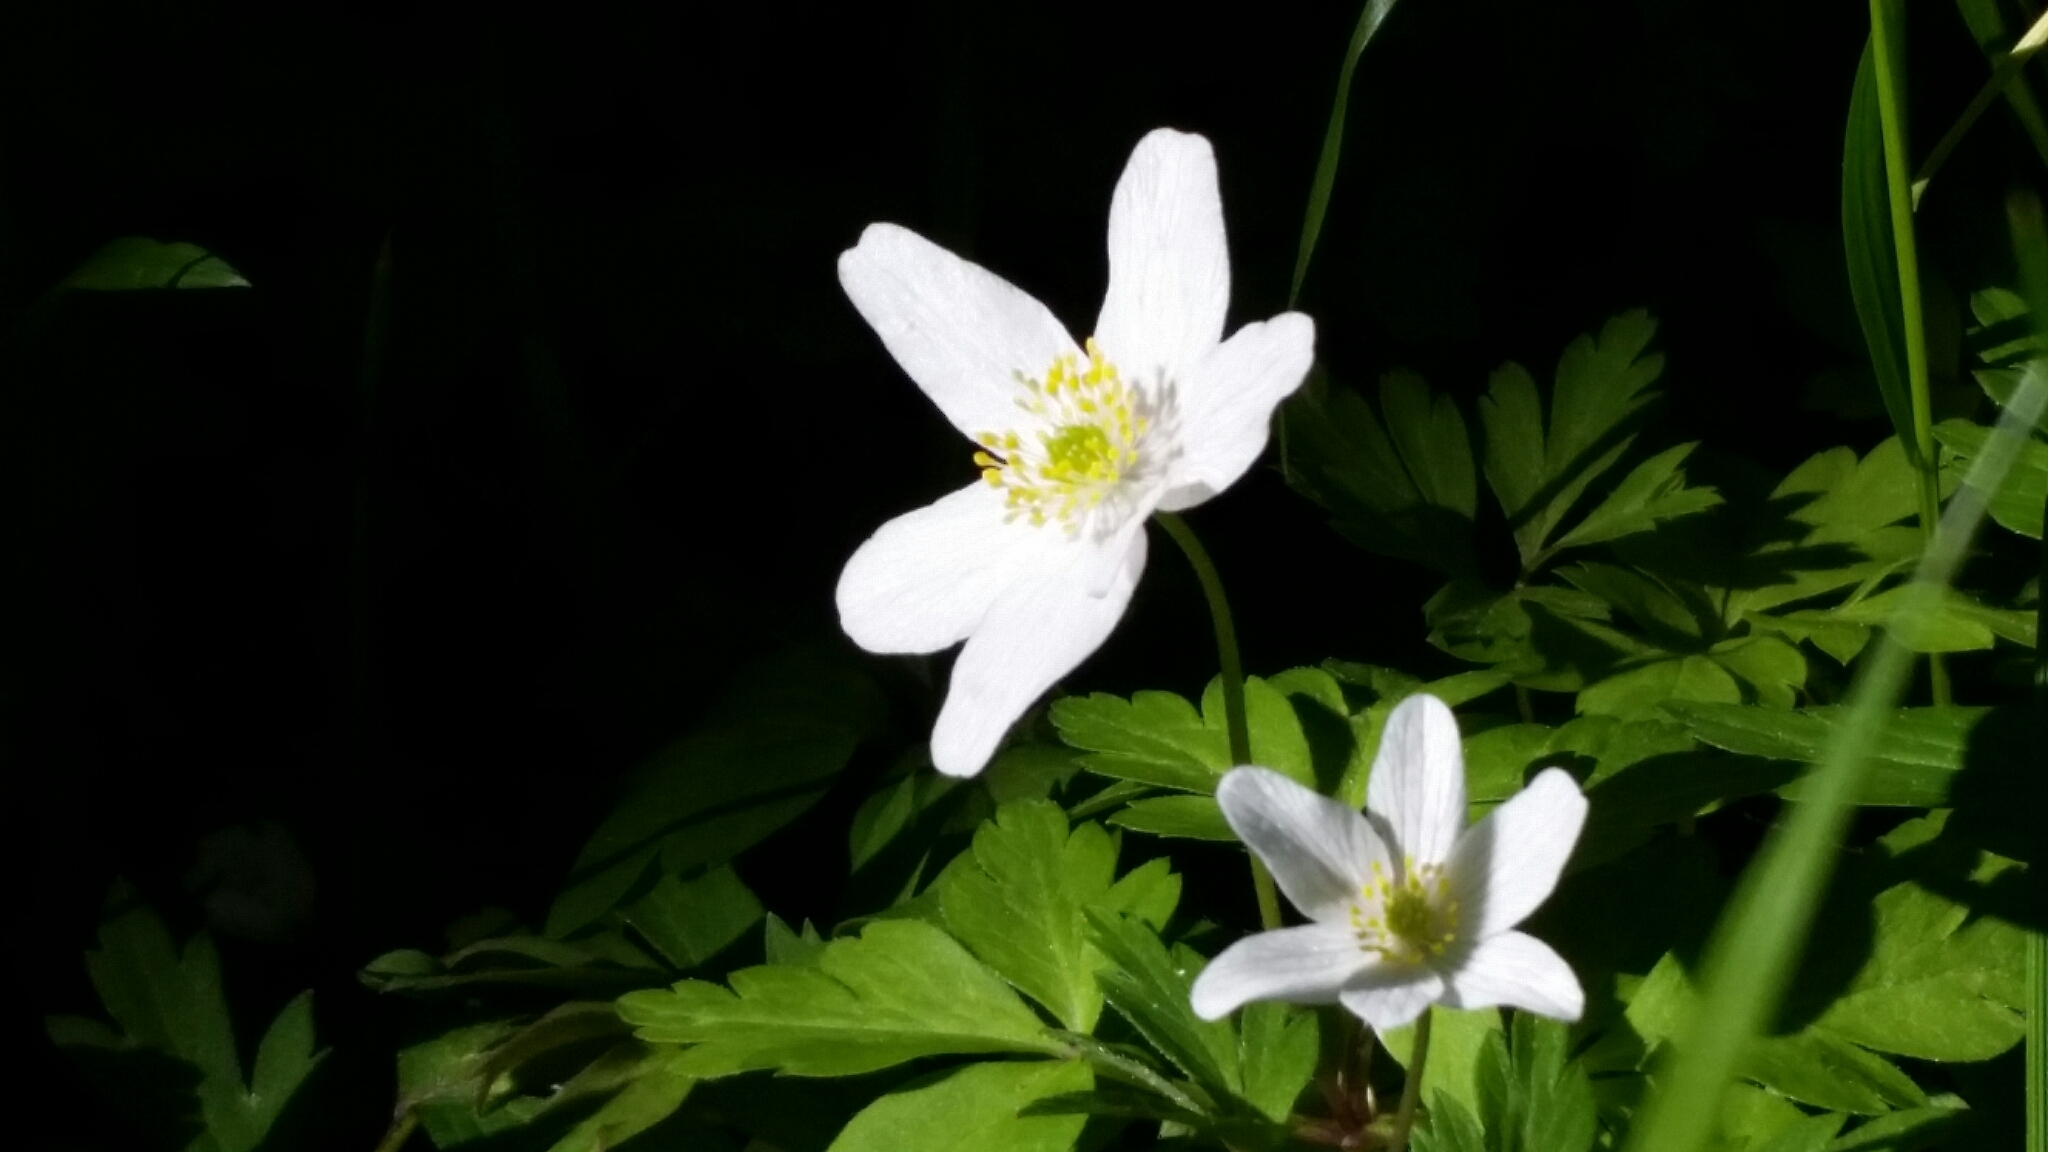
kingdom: Plantae
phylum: Tracheophyta
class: Magnoliopsida
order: Ranunculales
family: Ranunculaceae
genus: Anemone
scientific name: Anemone nemorosa
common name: Wood anemone
